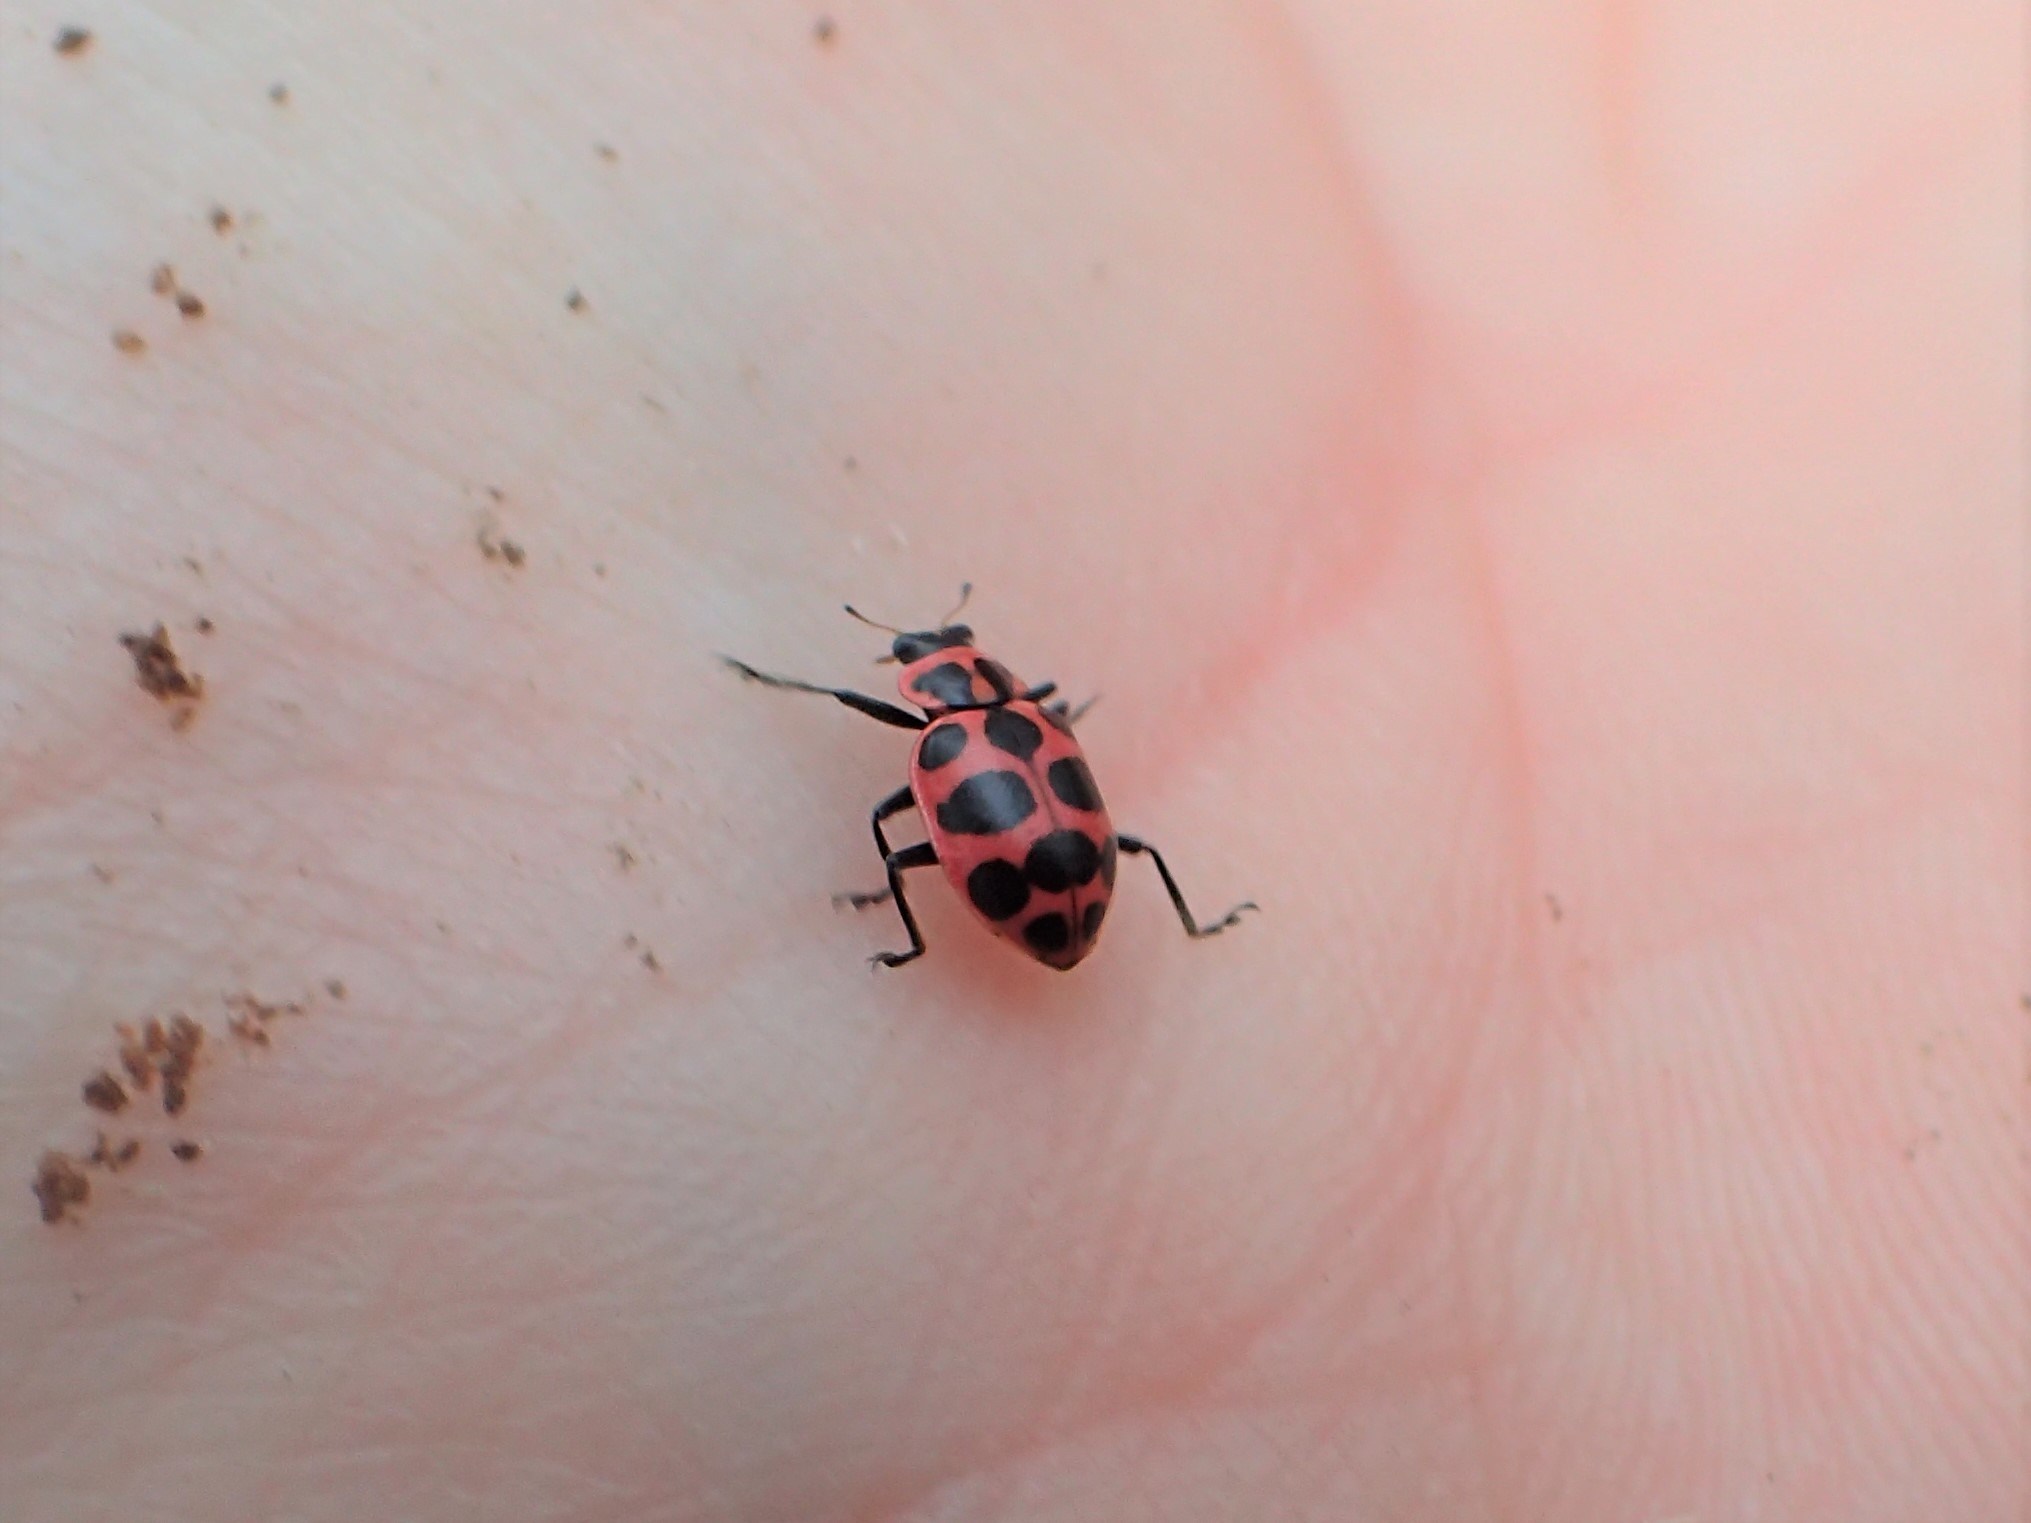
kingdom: Animalia
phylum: Arthropoda
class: Insecta
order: Coleoptera
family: Coccinellidae
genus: Coleomegilla
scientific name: Coleomegilla maculata
